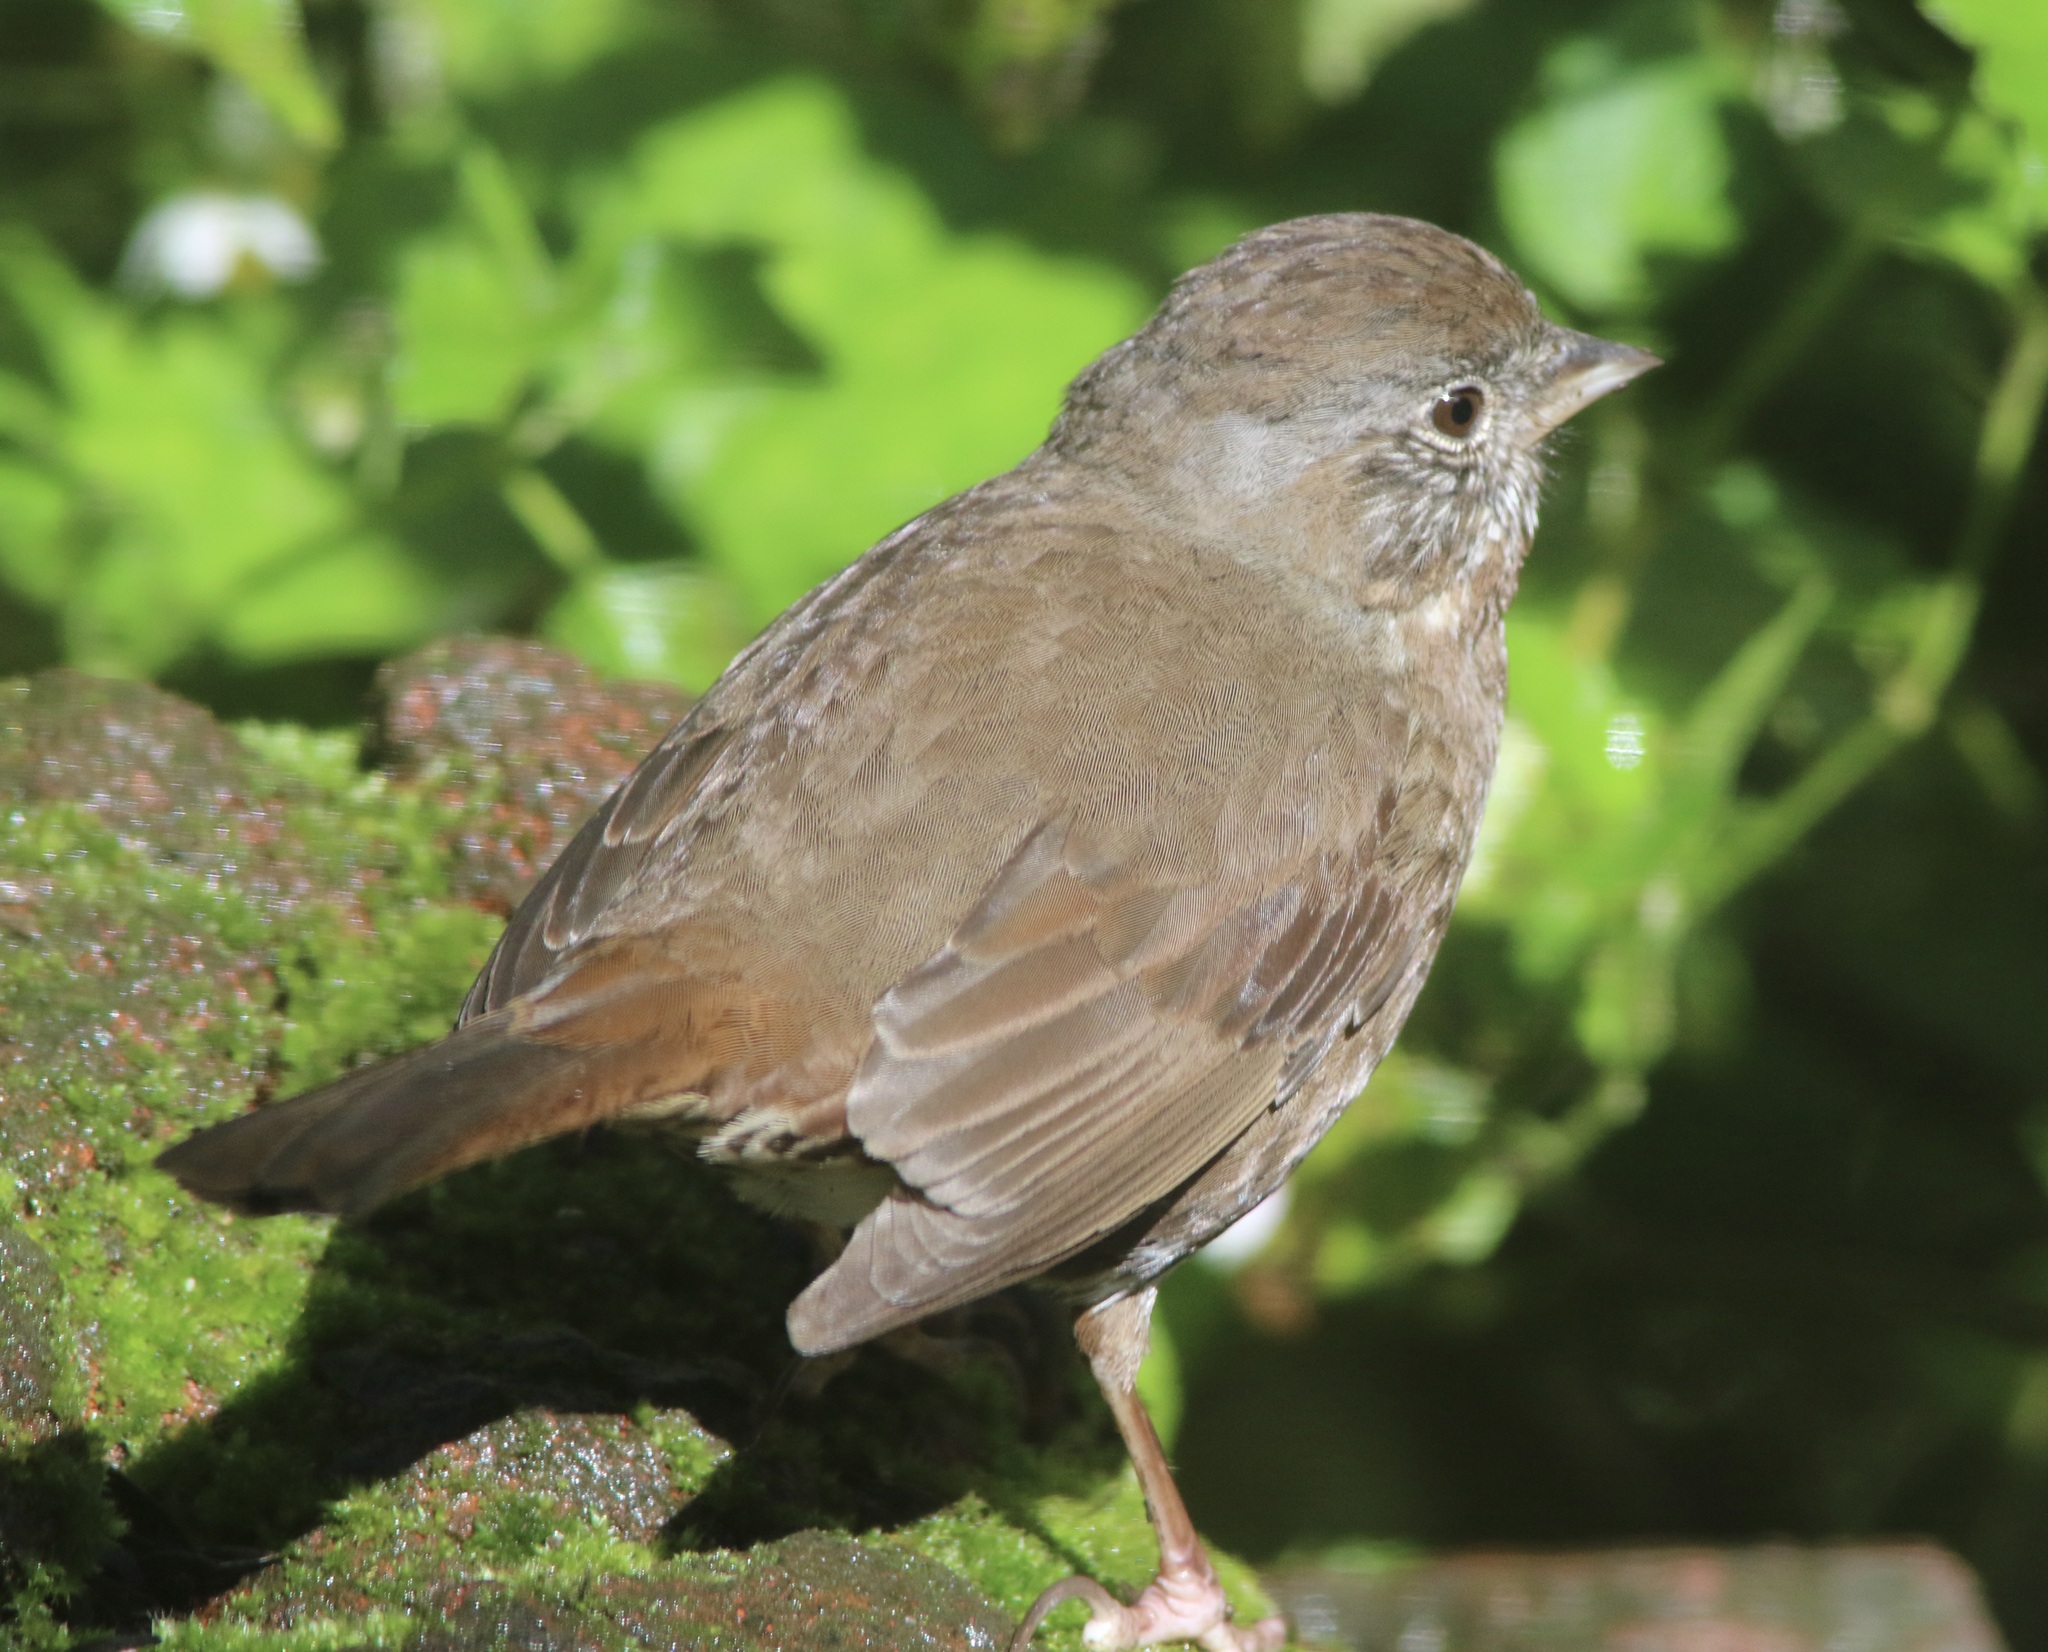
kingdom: Animalia
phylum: Chordata
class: Aves
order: Passeriformes
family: Passerellidae
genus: Passerella
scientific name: Passerella iliaca
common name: Fox sparrow
